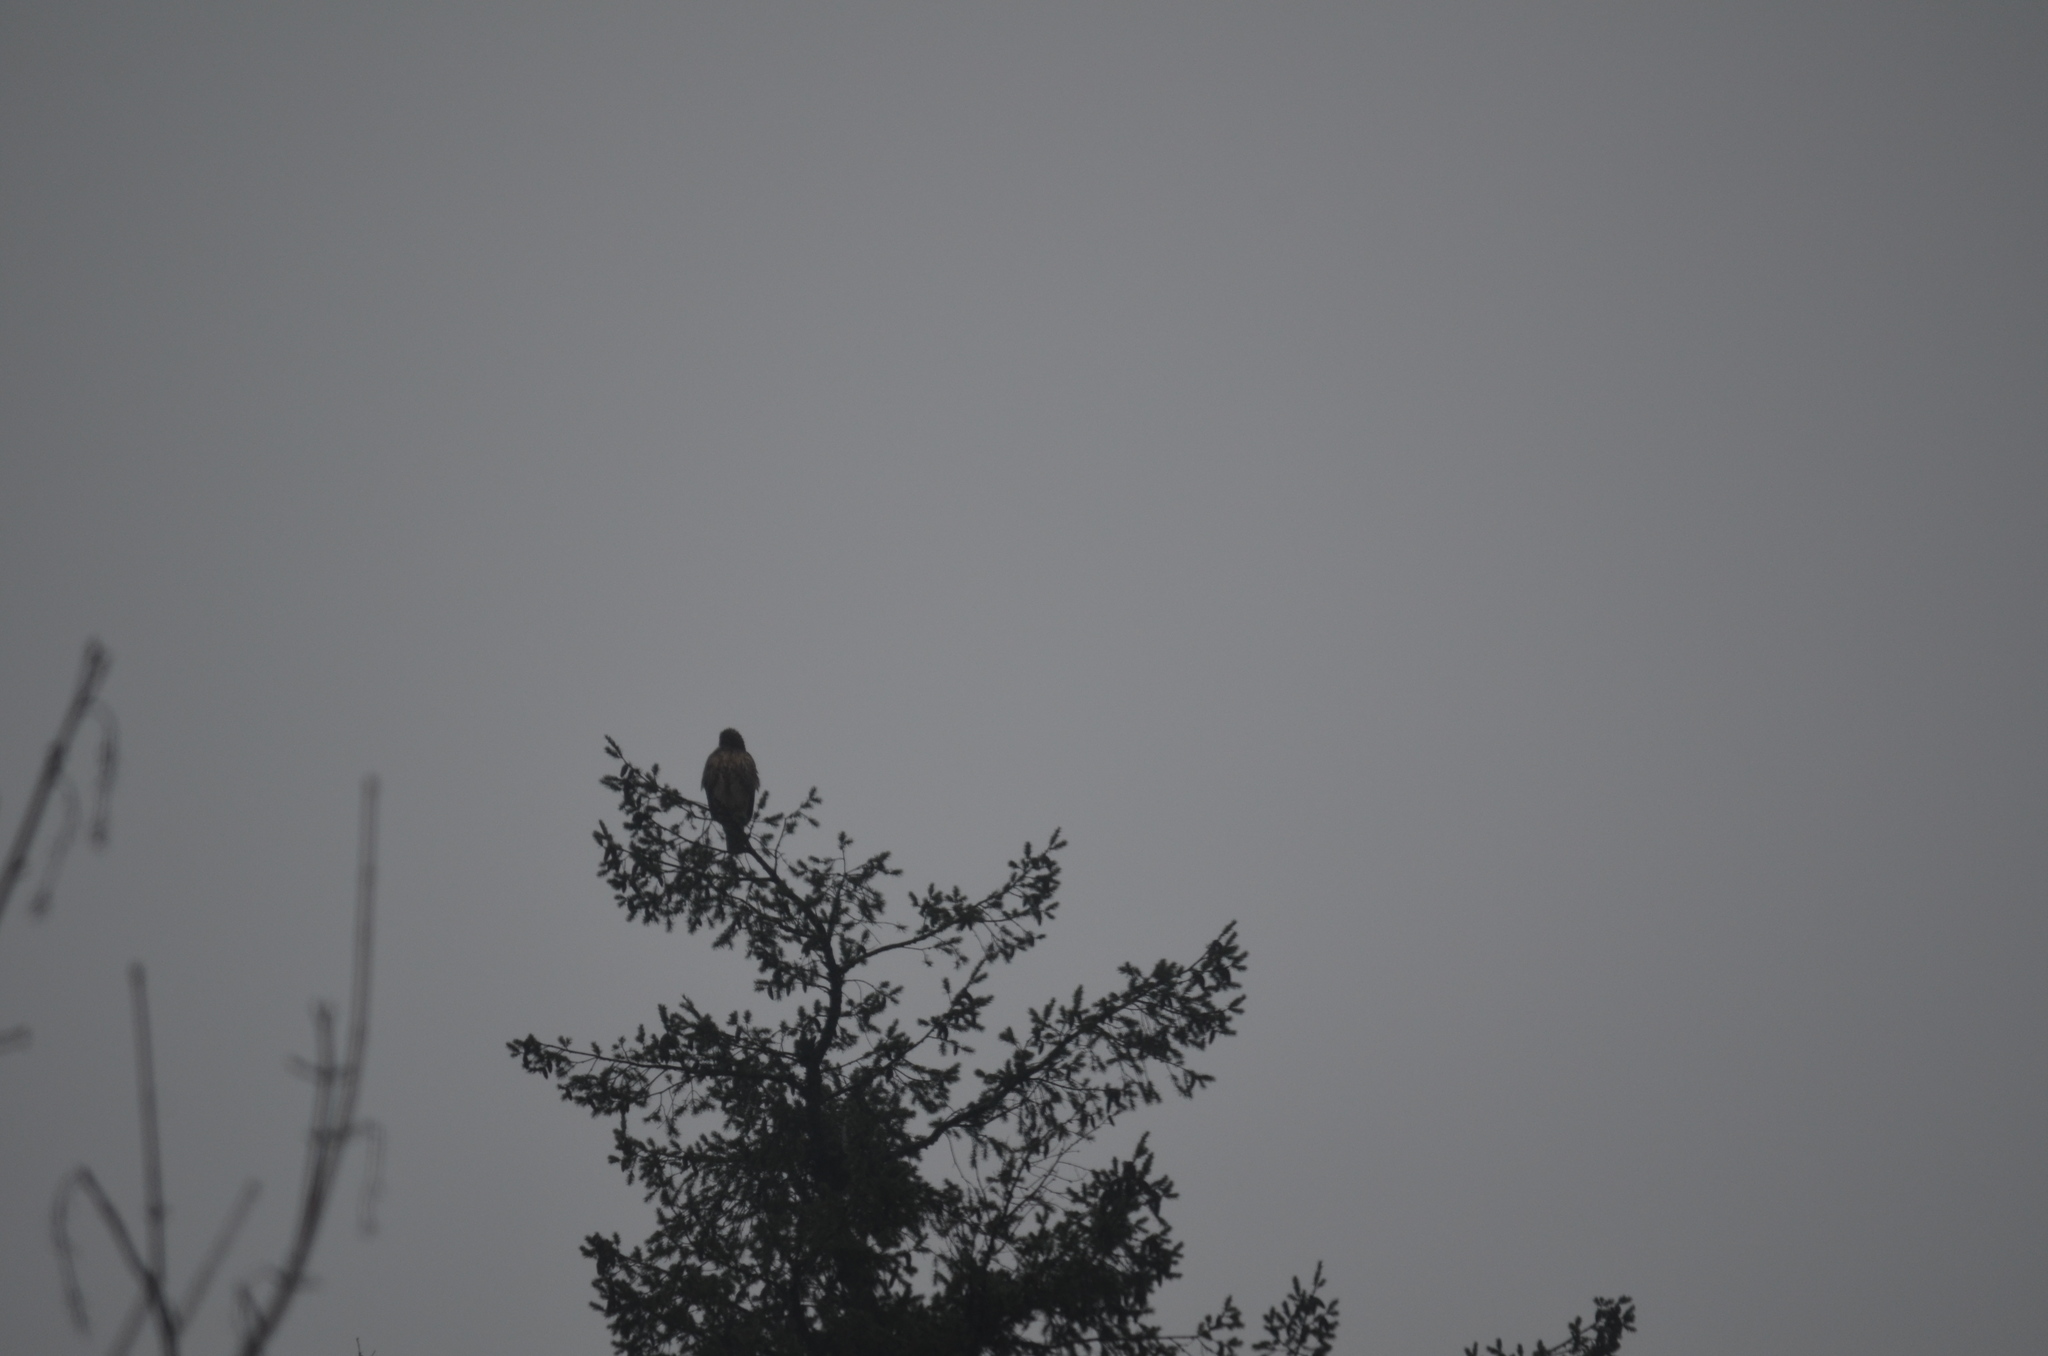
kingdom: Animalia
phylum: Chordata
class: Aves
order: Accipitriformes
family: Accipitridae
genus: Buteo
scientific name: Buteo jamaicensis
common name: Red-tailed hawk
